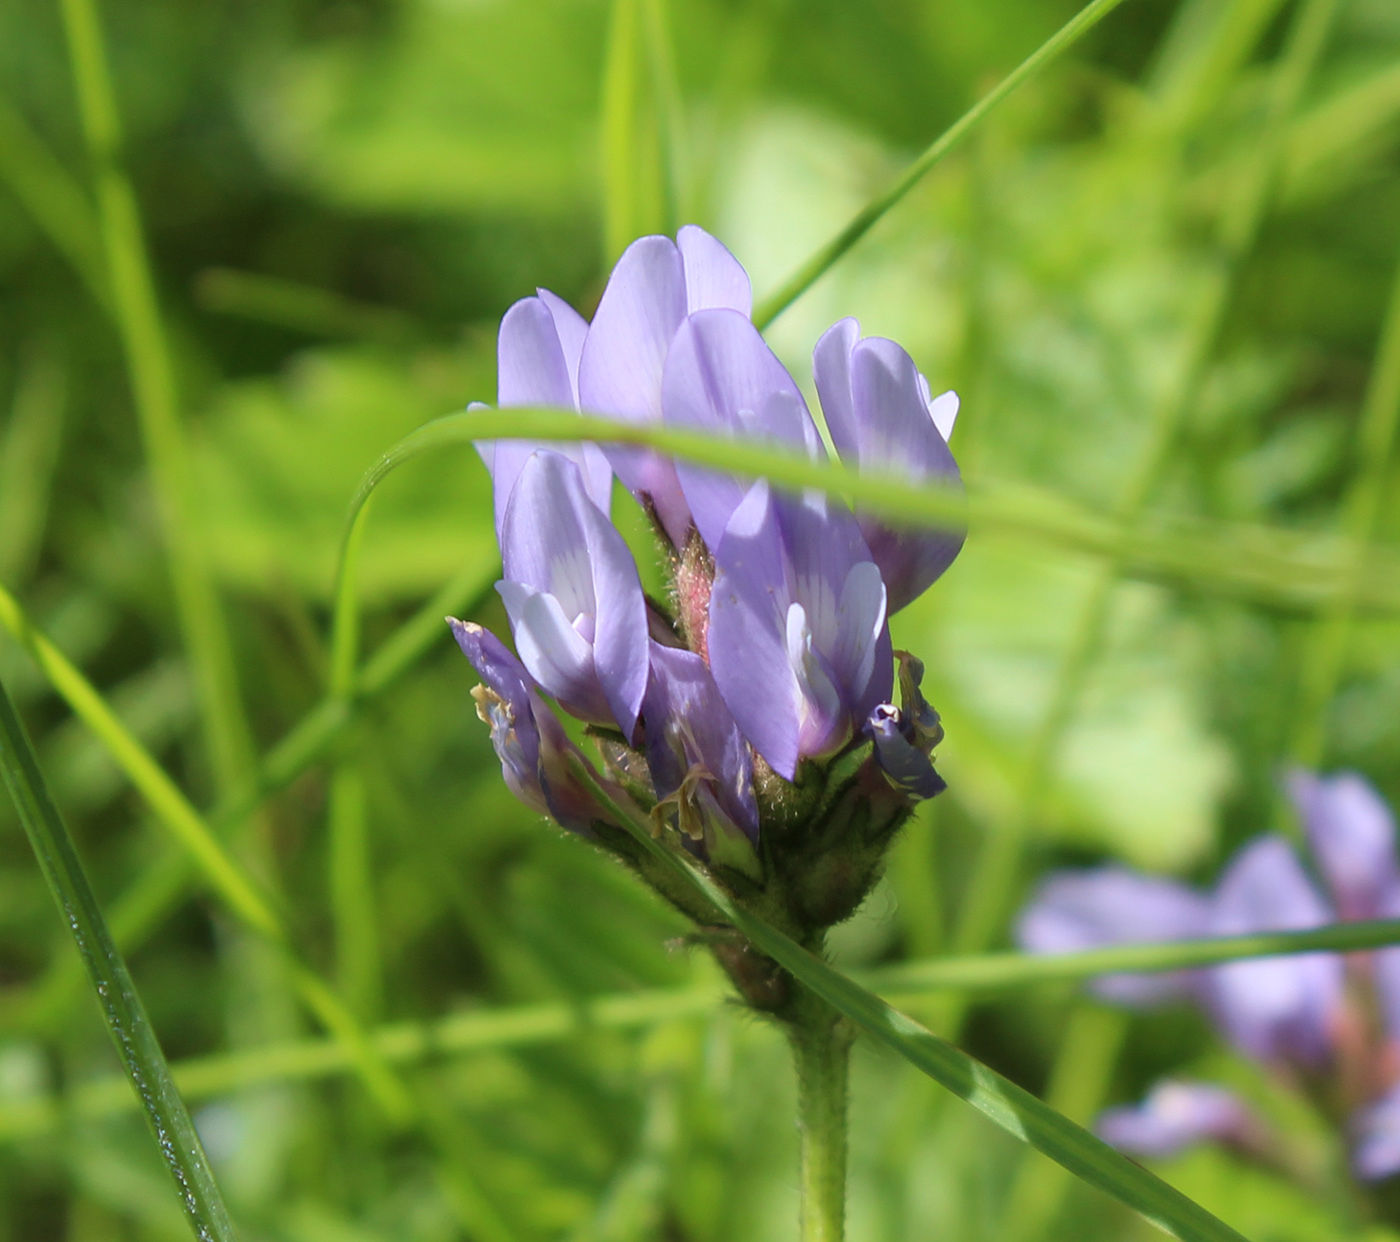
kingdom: Plantae
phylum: Tracheophyta
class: Magnoliopsida
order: Fabales
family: Fabaceae
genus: Astragalus
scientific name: Astragalus danicus
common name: Purple milk-vetch
